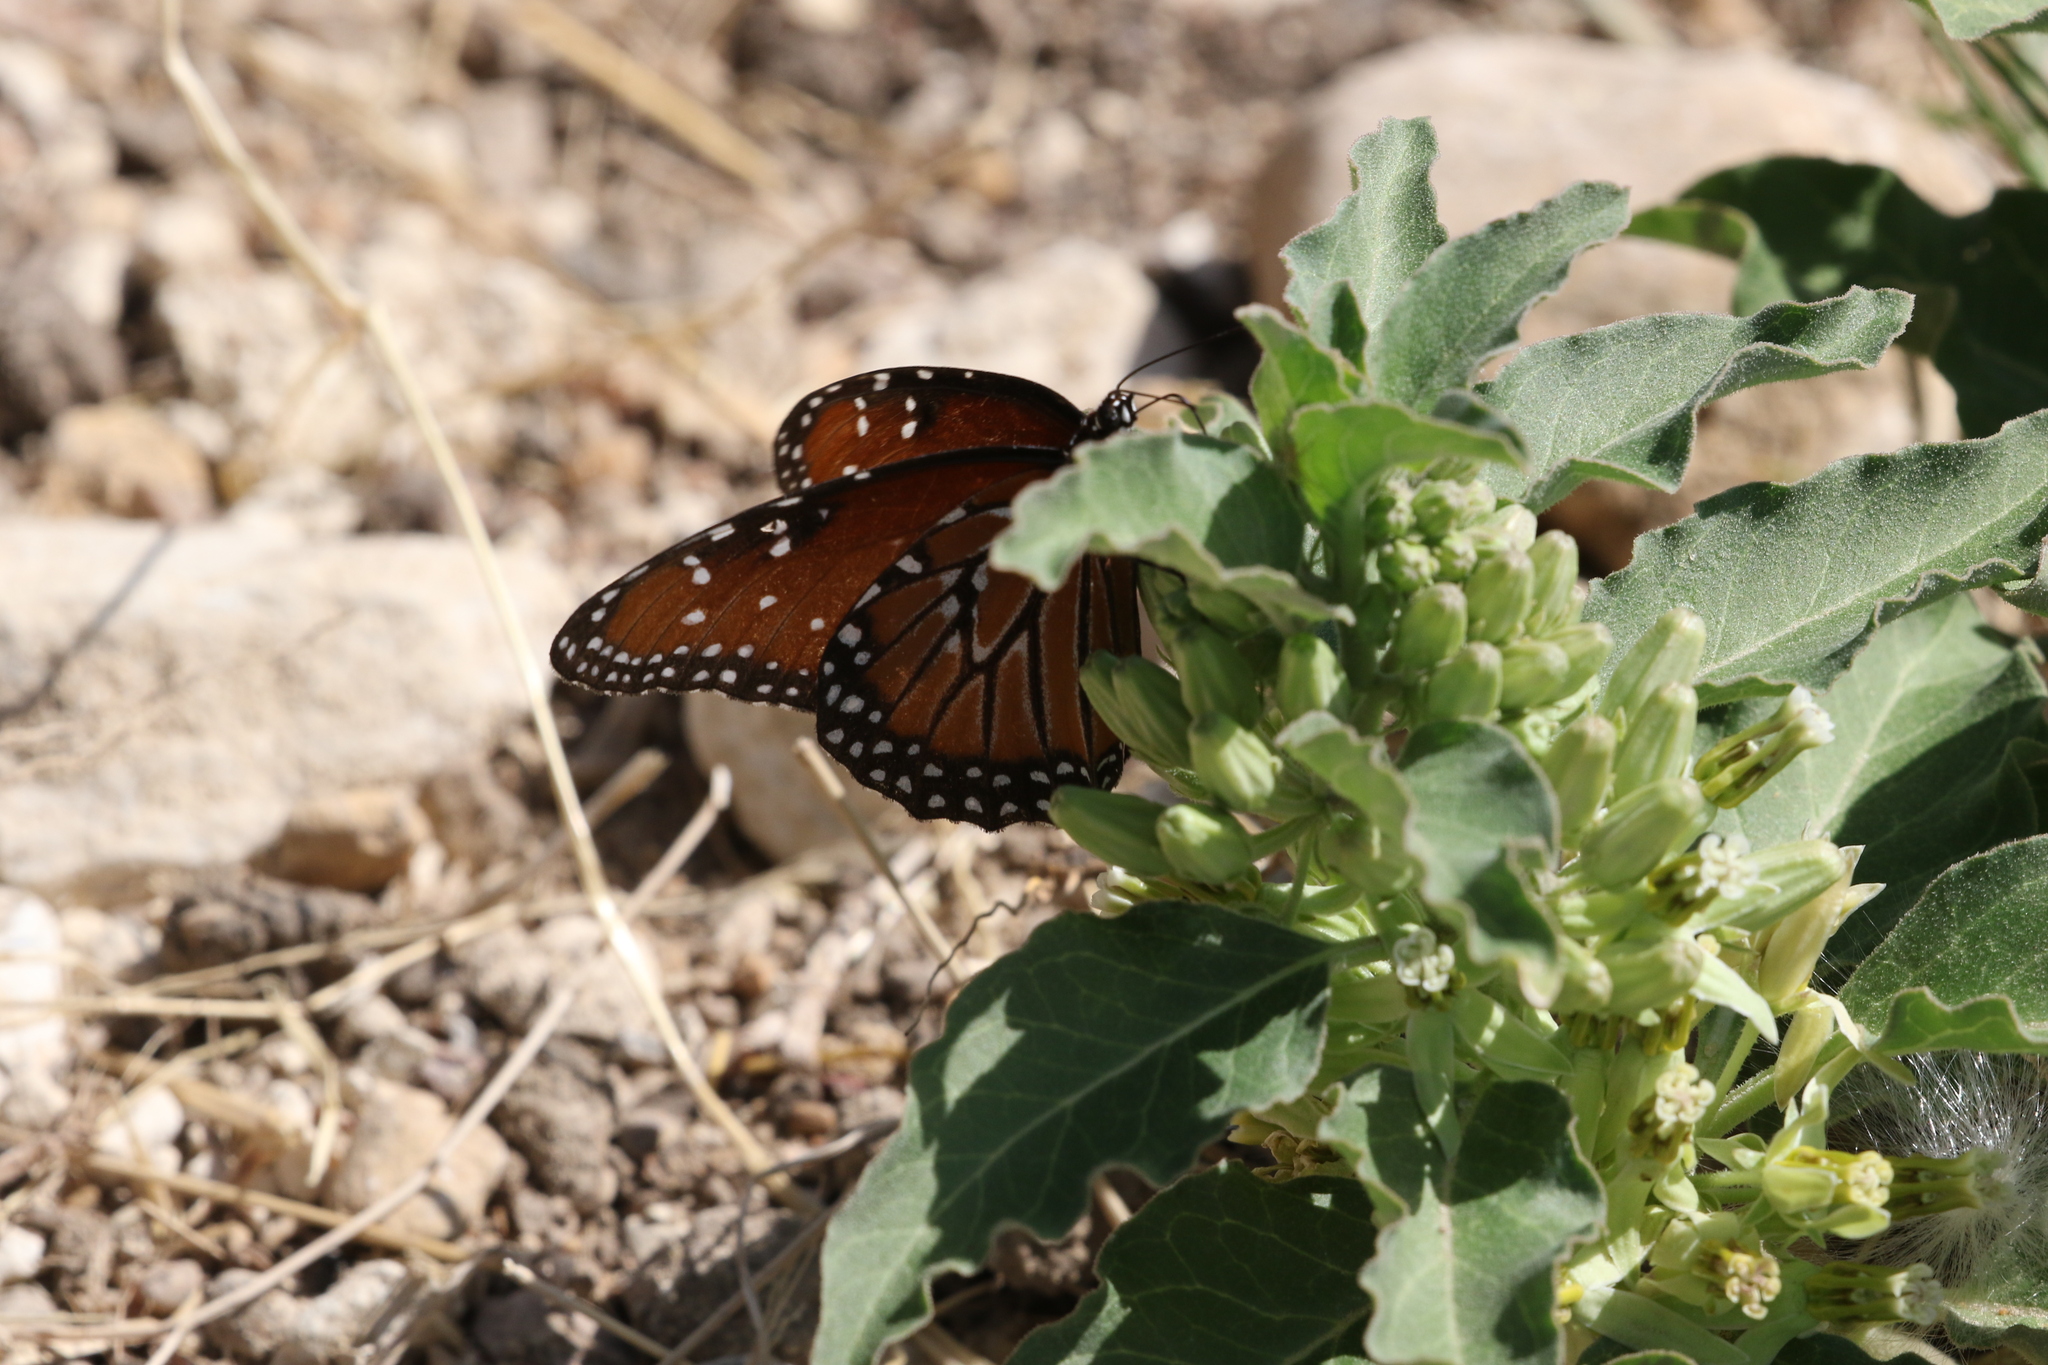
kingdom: Animalia
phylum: Arthropoda
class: Insecta
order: Lepidoptera
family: Nymphalidae
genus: Danaus
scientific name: Danaus gilippus
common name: Queen
